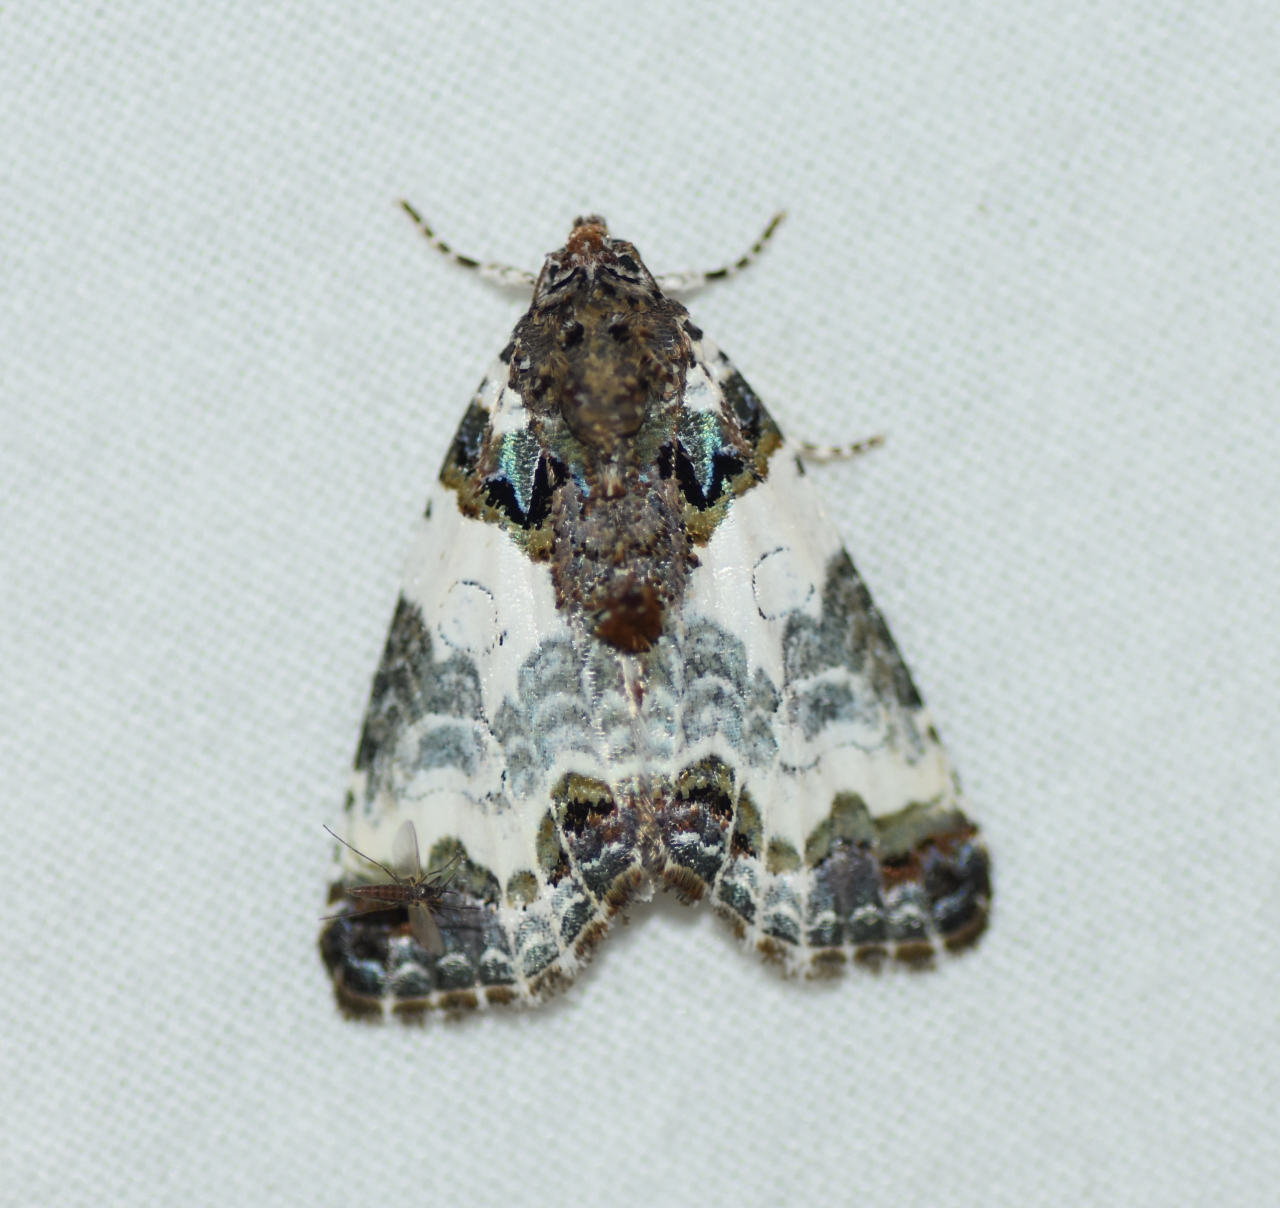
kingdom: Animalia
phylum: Arthropoda
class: Insecta
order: Lepidoptera
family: Noctuidae
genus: Cerma
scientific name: Cerma cerintha
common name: Tufted bird-dropping moth
